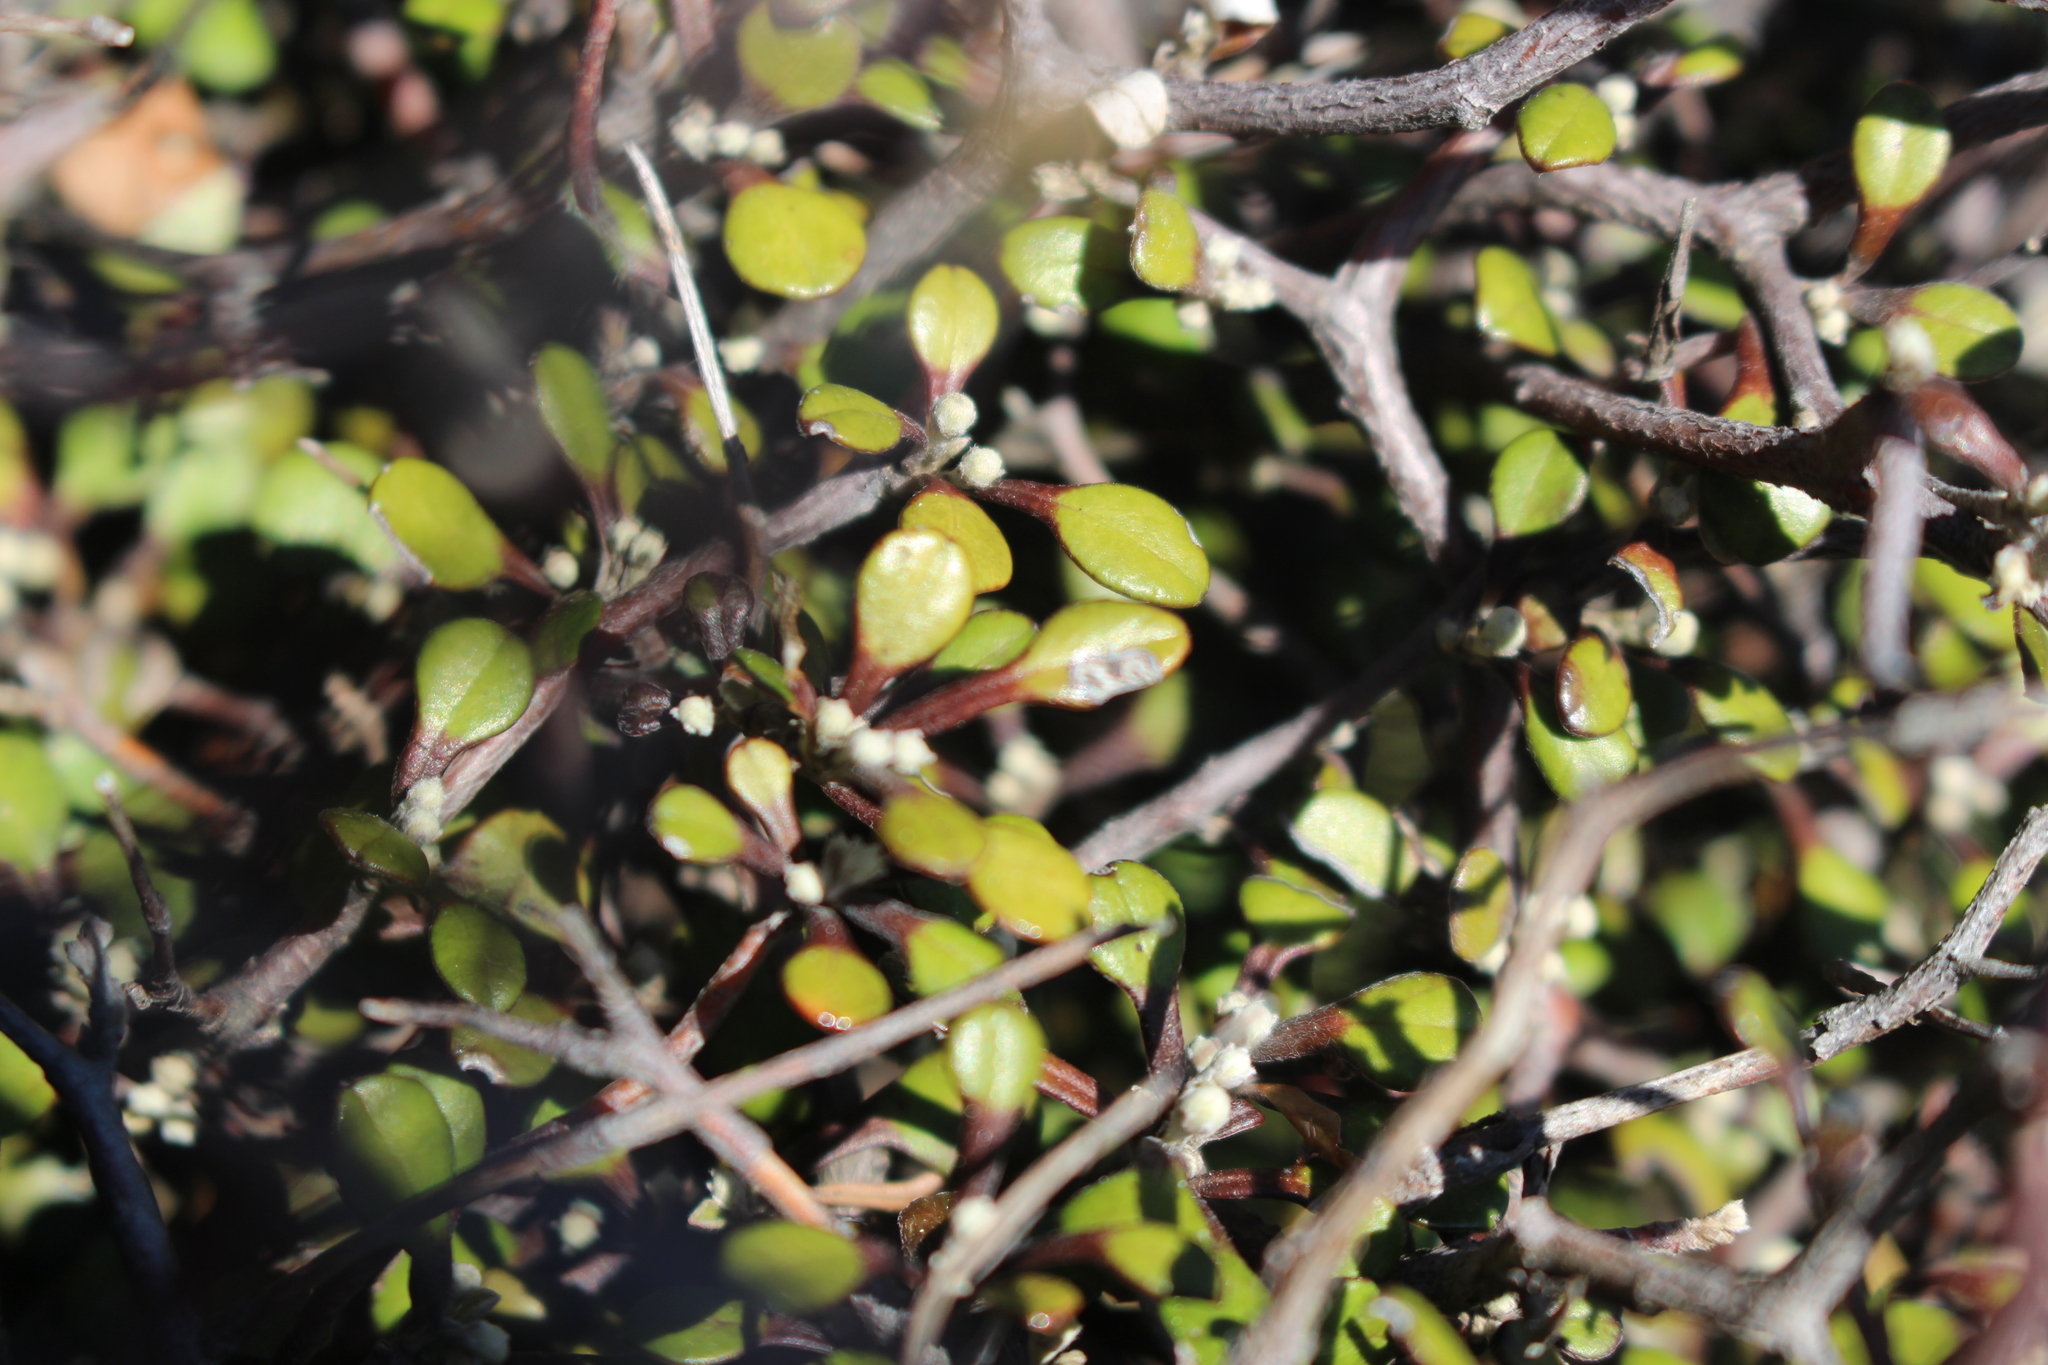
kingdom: Plantae
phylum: Tracheophyta
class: Magnoliopsida
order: Asterales
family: Argophyllaceae
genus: Corokia
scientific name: Corokia cotoneaster
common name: Wire nettingbush
